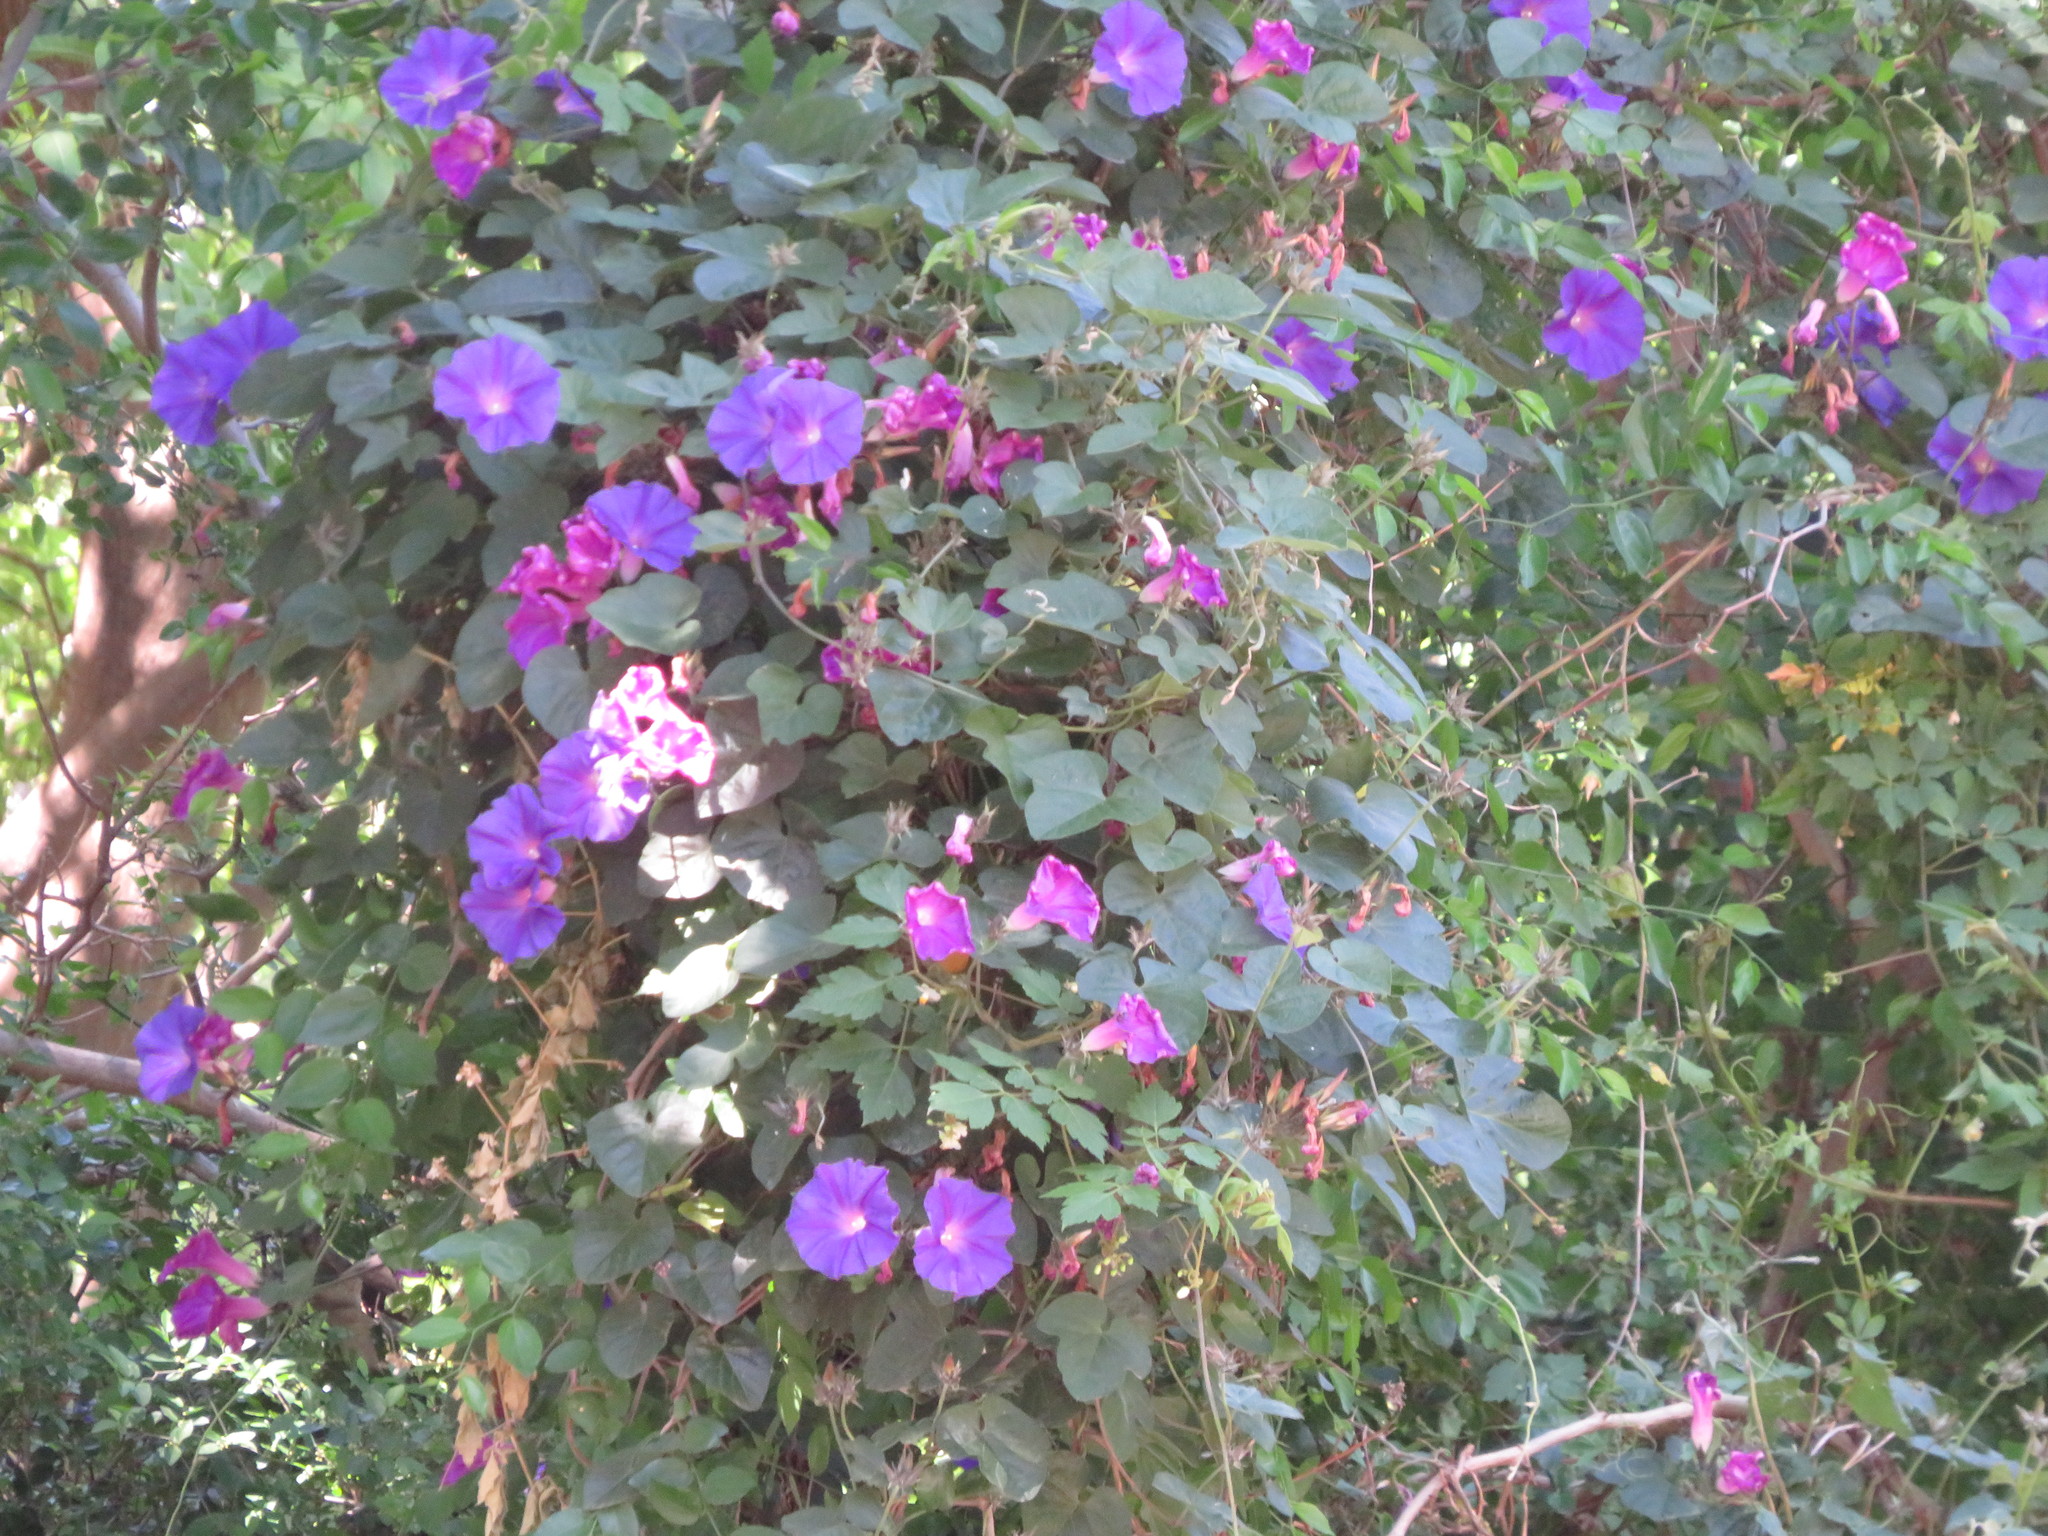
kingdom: Plantae
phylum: Tracheophyta
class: Magnoliopsida
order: Solanales
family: Convolvulaceae
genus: Ipomoea
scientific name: Ipomoea indica
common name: Blue dawnflower
